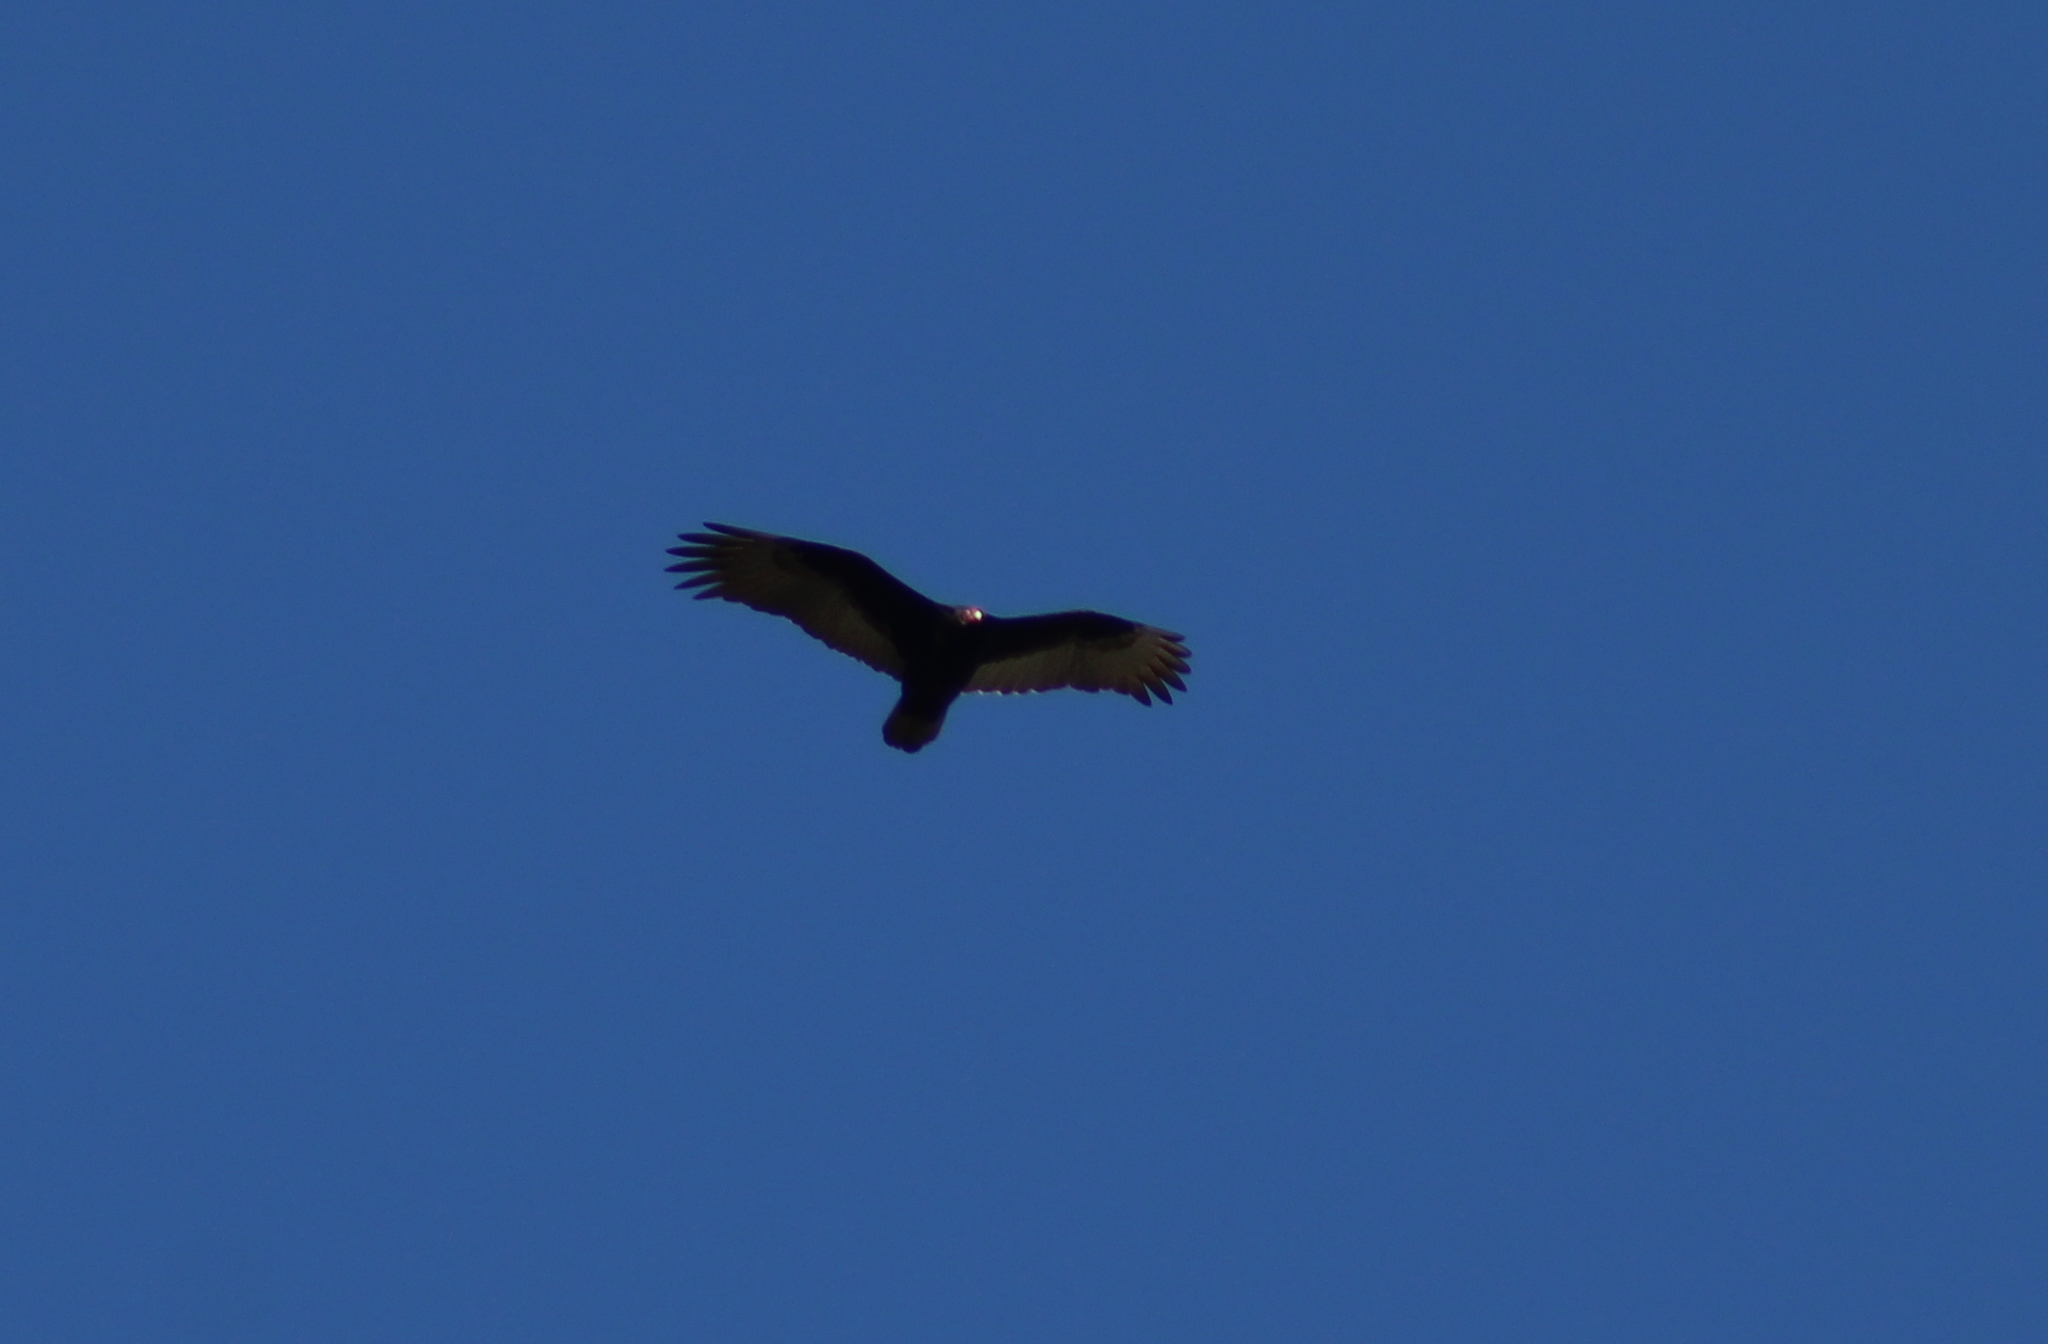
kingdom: Animalia
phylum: Chordata
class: Aves
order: Accipitriformes
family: Cathartidae
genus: Cathartes
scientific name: Cathartes aura
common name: Turkey vulture
